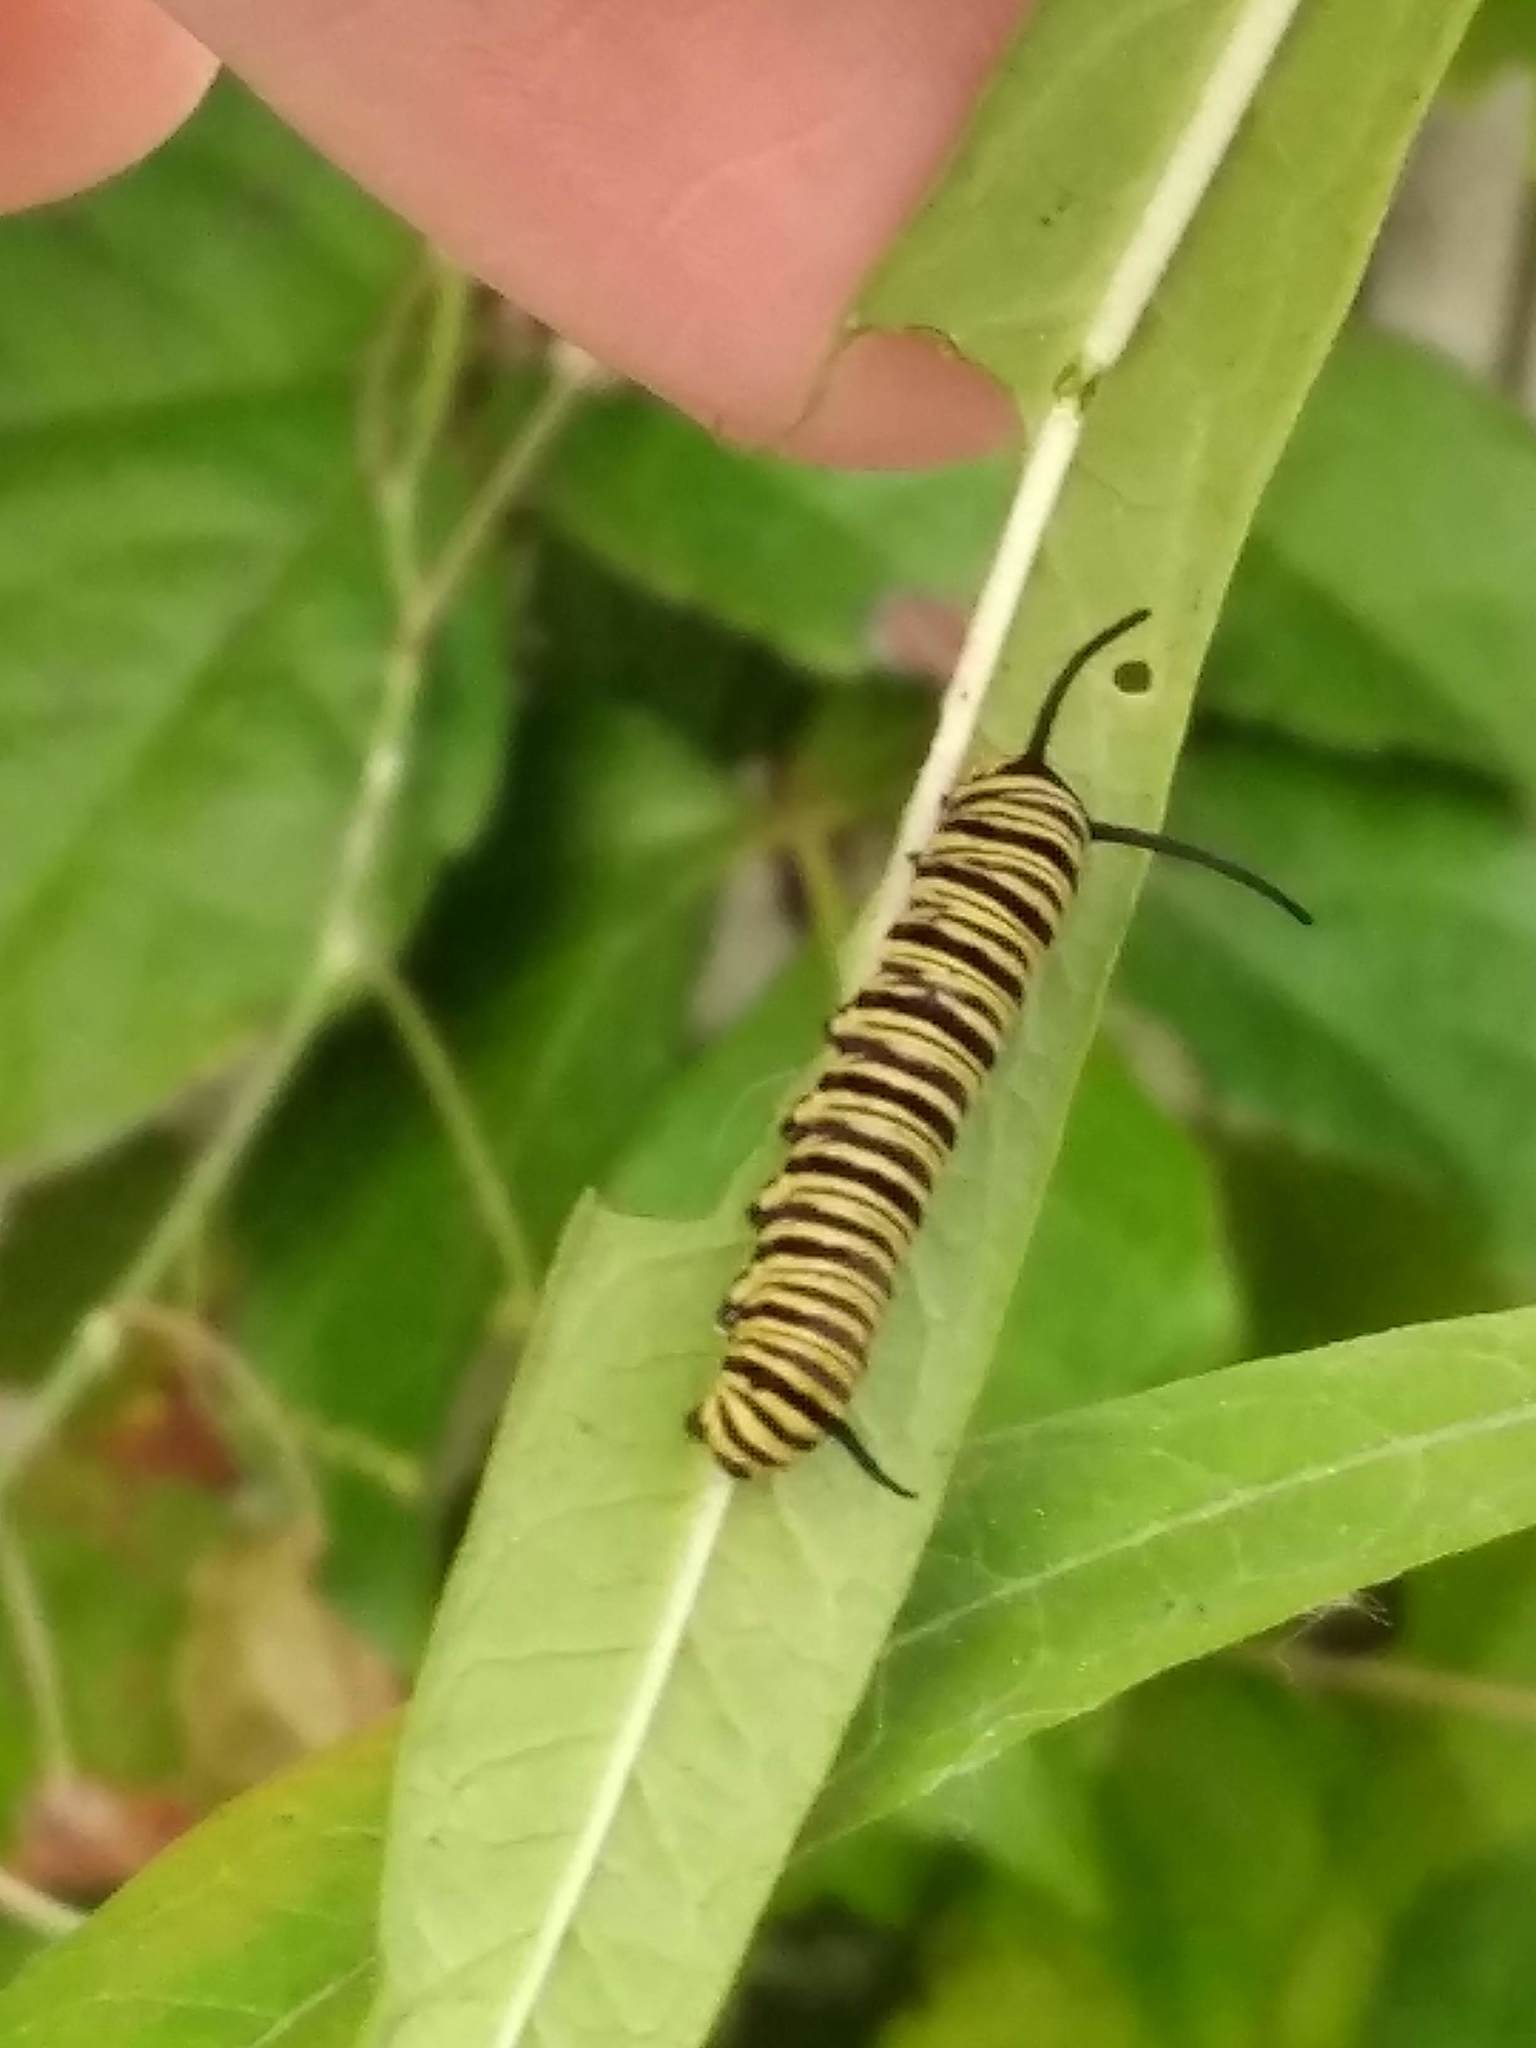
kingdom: Animalia
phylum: Arthropoda
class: Insecta
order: Lepidoptera
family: Nymphalidae
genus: Danaus
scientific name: Danaus erippus
